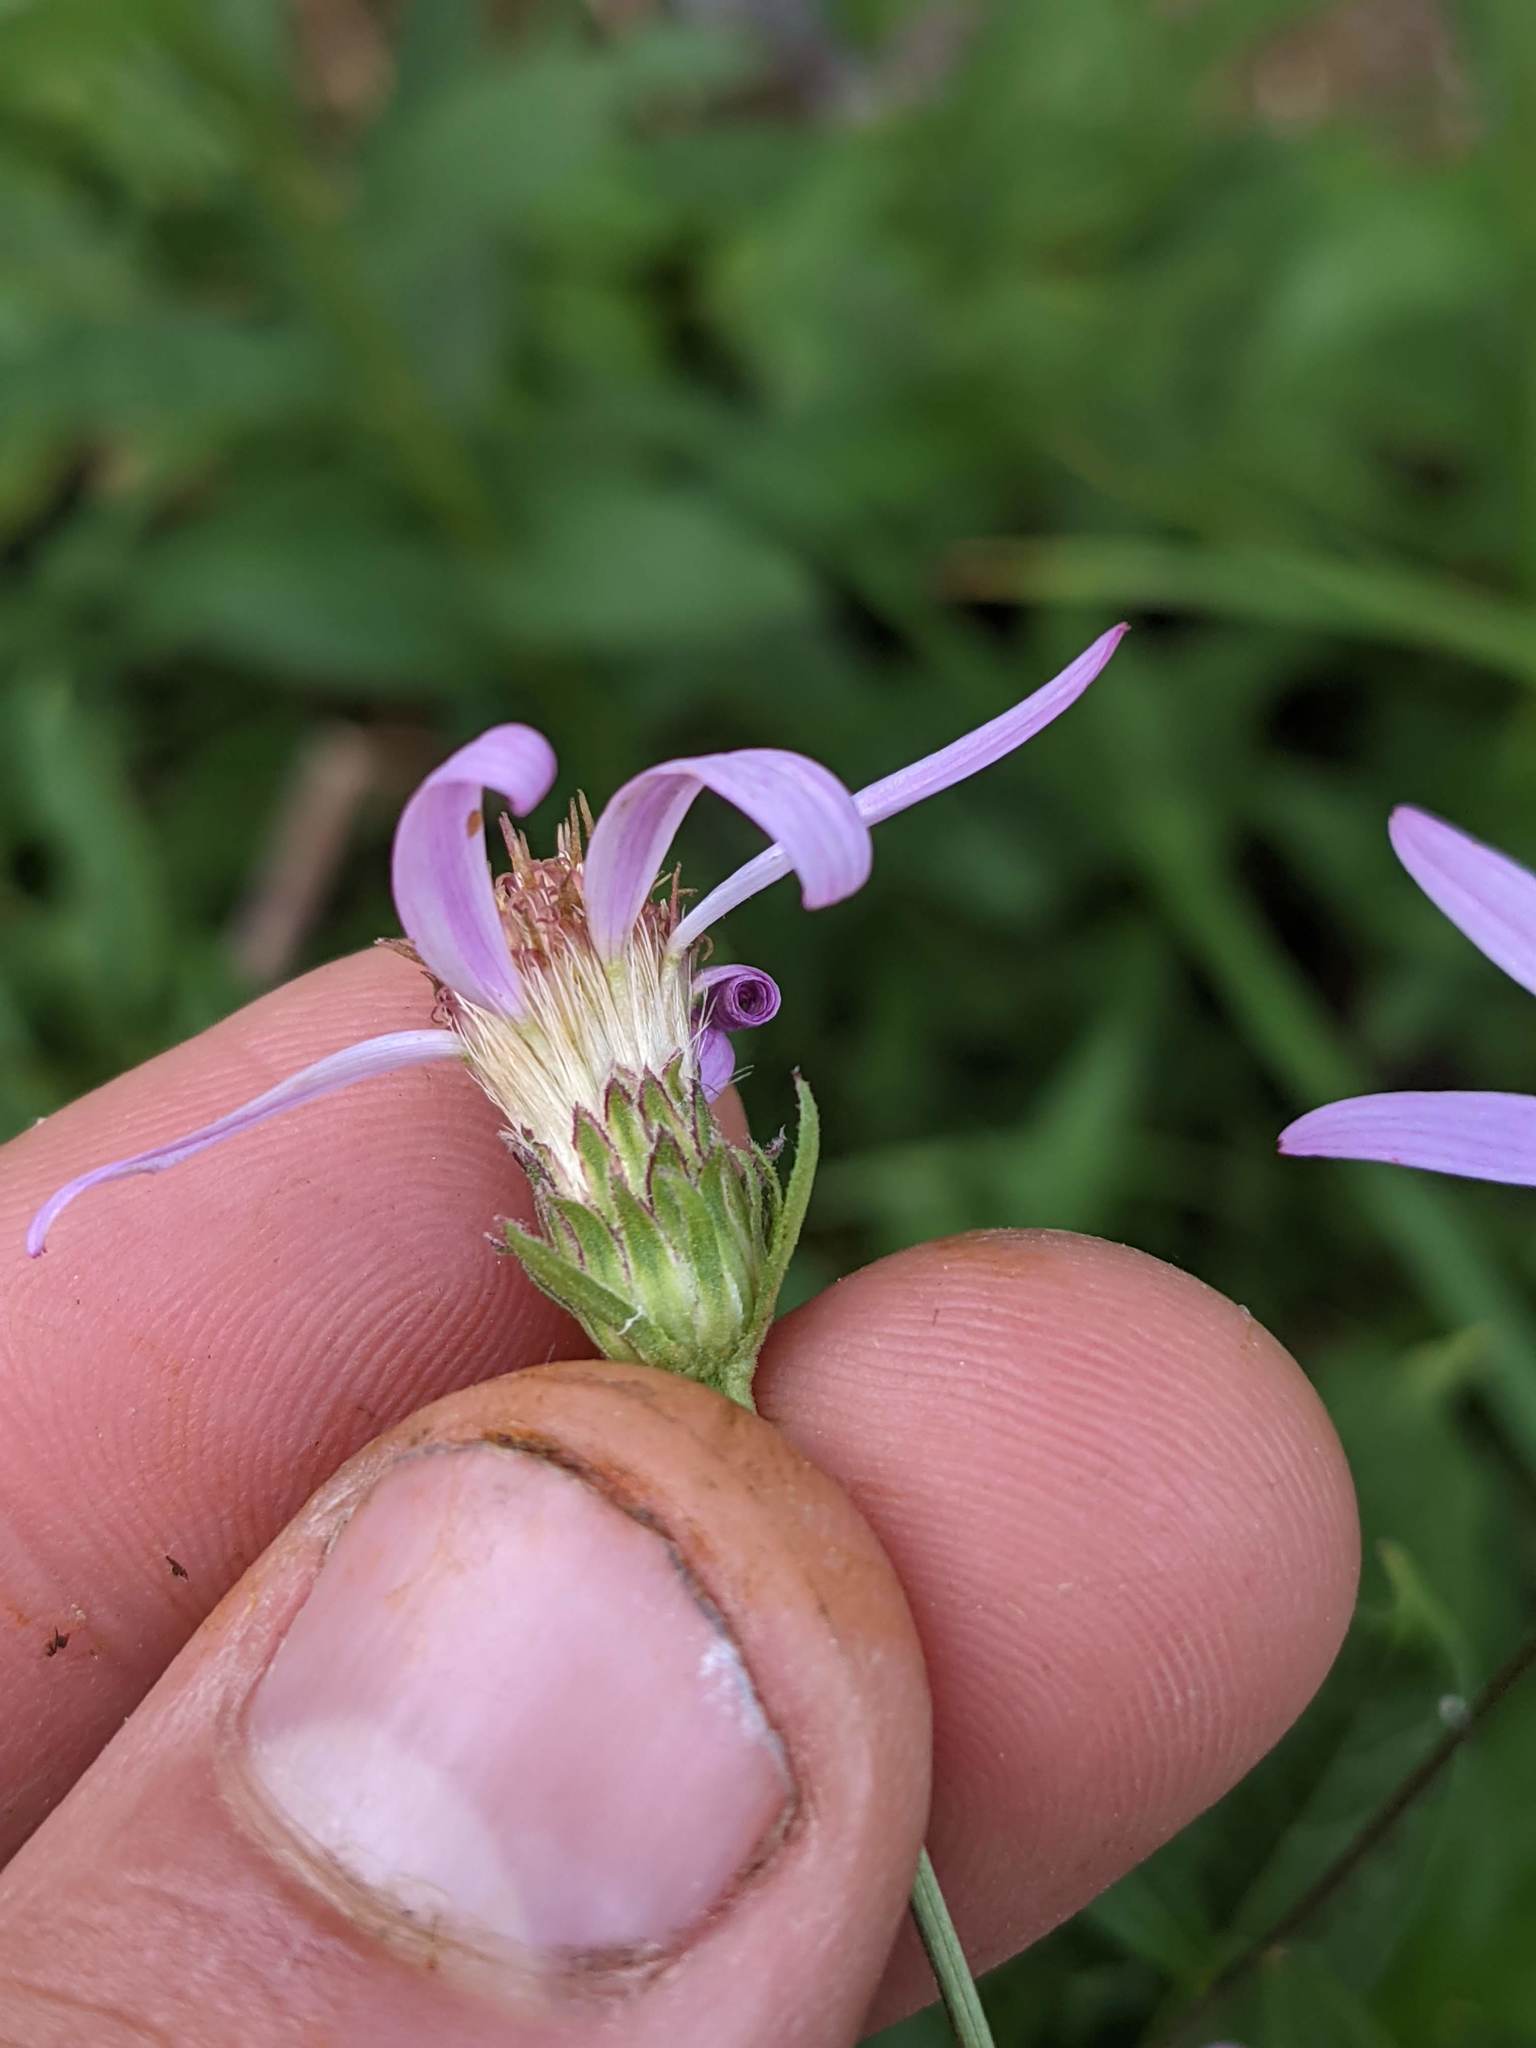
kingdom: Plantae
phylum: Tracheophyta
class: Magnoliopsida
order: Asterales
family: Asteraceae
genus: Eucephalus
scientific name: Eucephalus engelmannii
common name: Engelmann's aster
